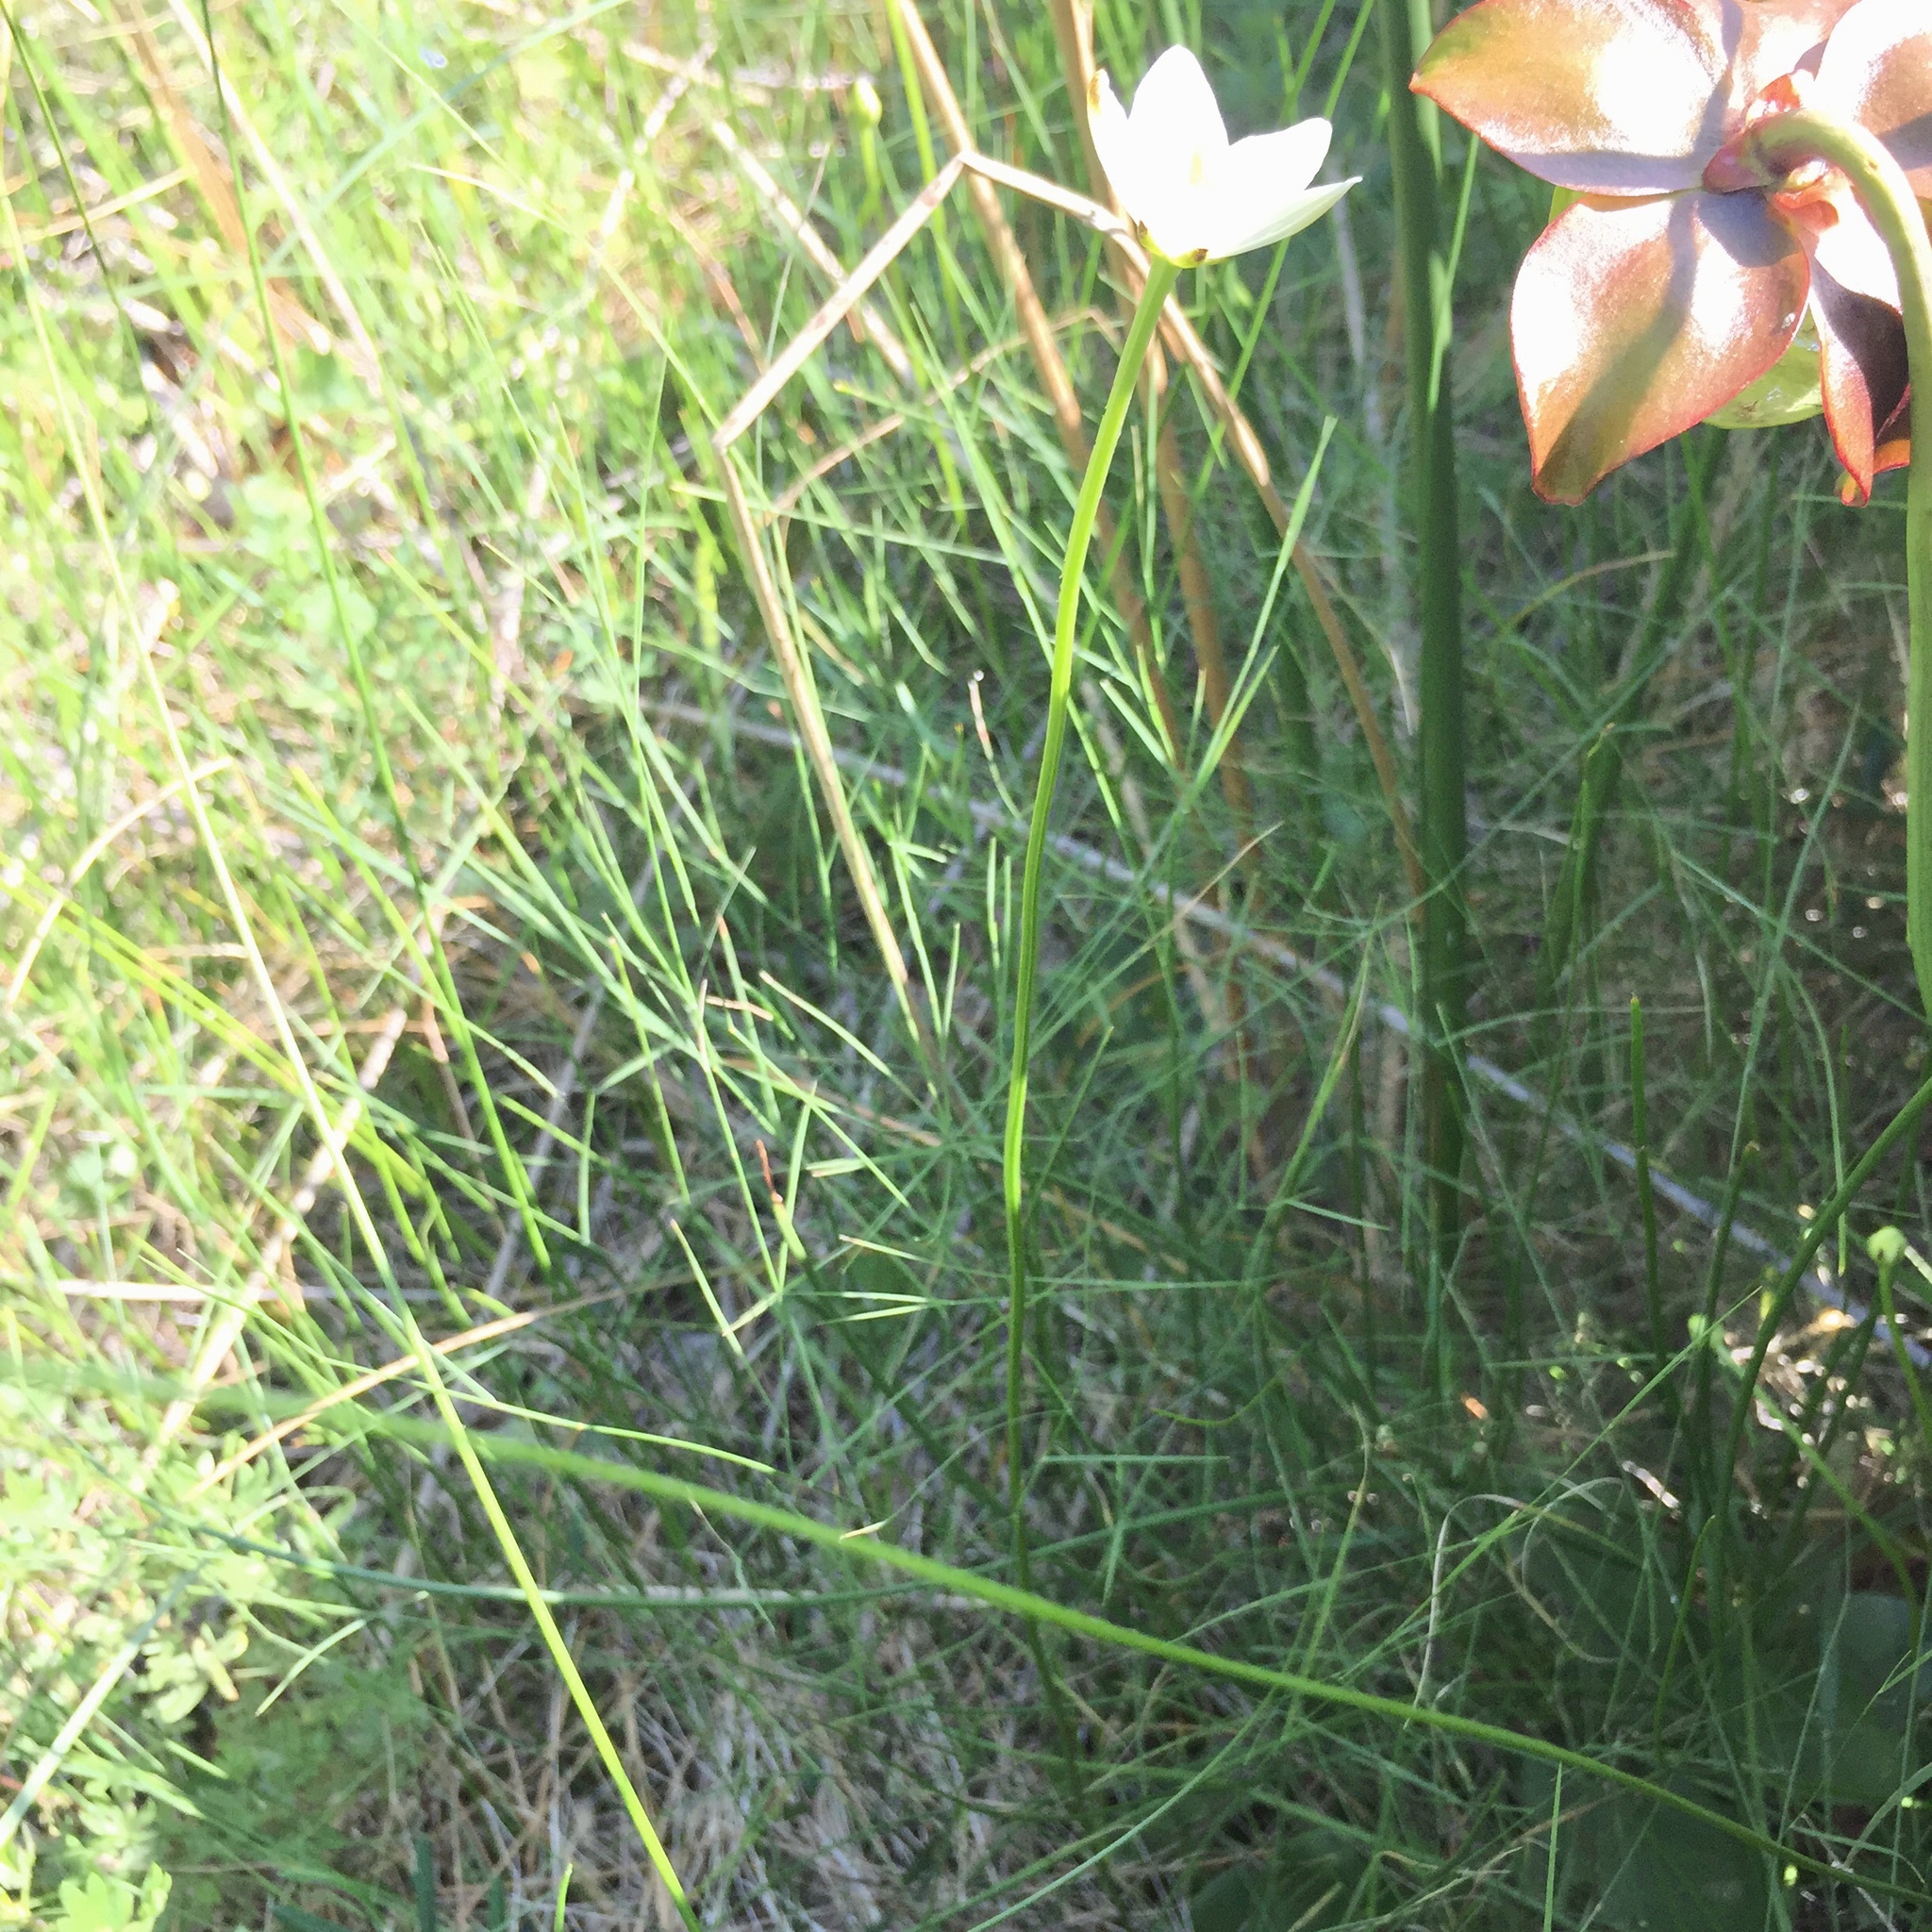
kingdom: Plantae
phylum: Tracheophyta
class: Magnoliopsida
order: Celastrales
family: Parnassiaceae
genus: Parnassia
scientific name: Parnassia glauca
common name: American grass-of-parnassus
